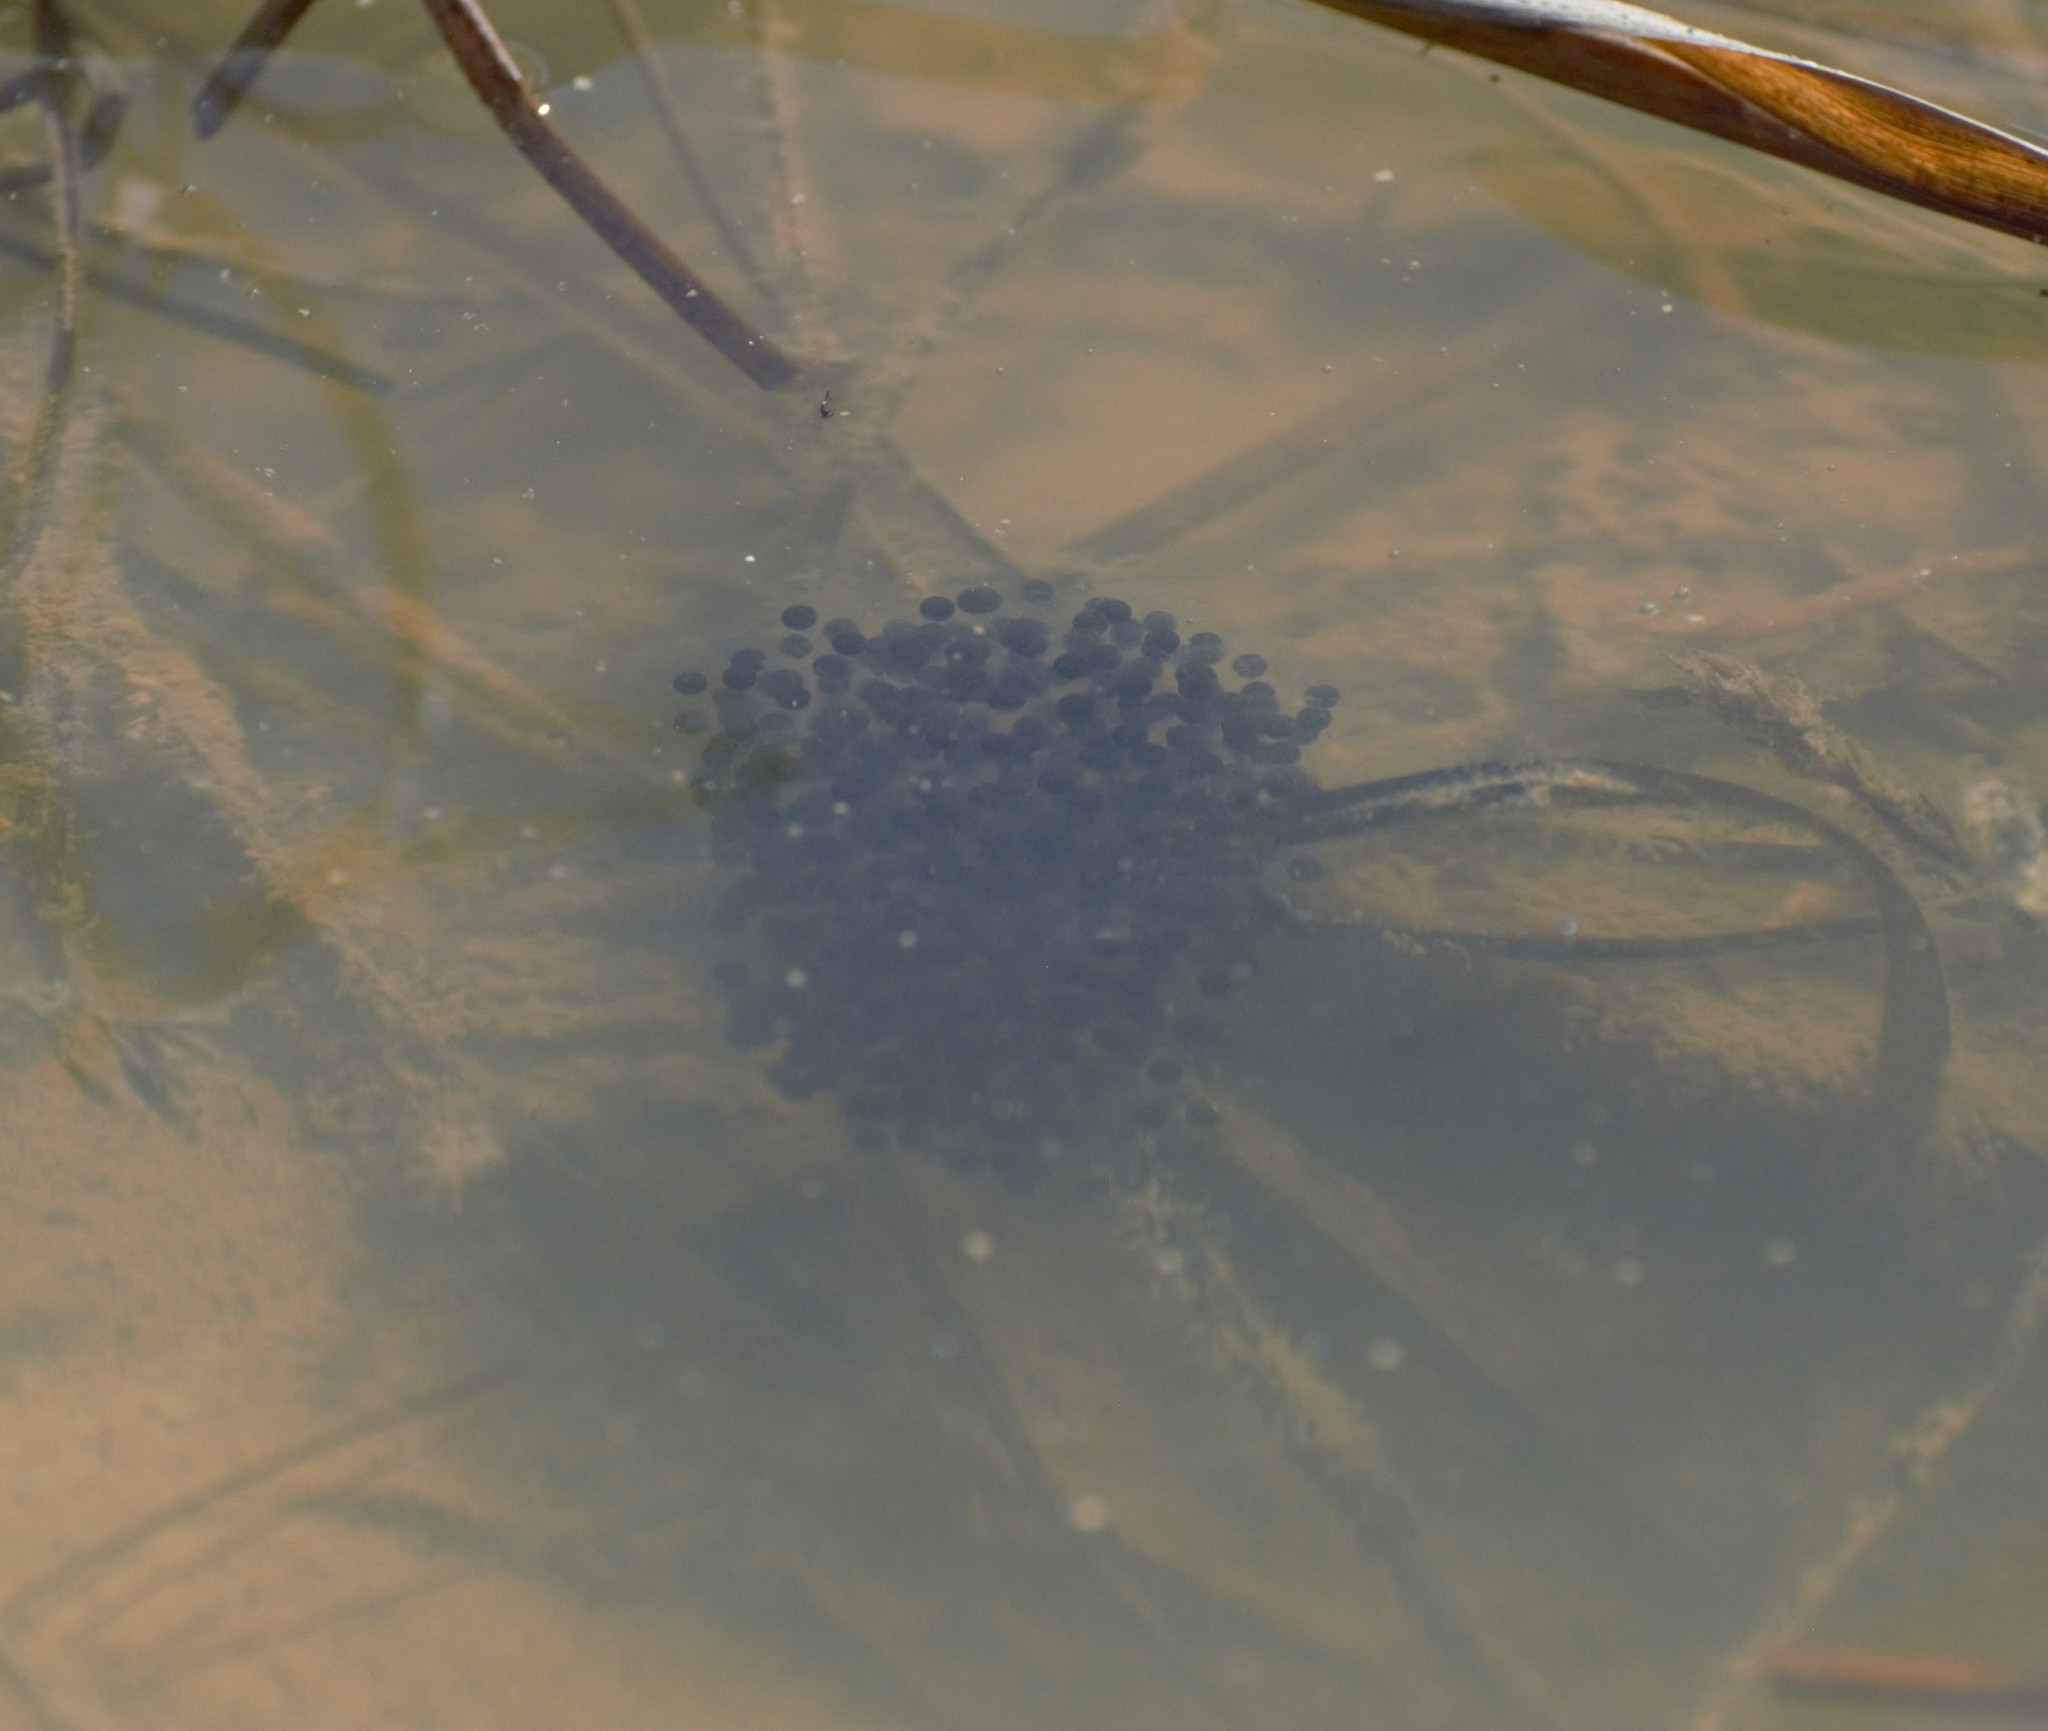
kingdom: Animalia
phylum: Chordata
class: Amphibia
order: Anura
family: Ranidae
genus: Lithobates
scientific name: Lithobates sylvaticus
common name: Wood frog
